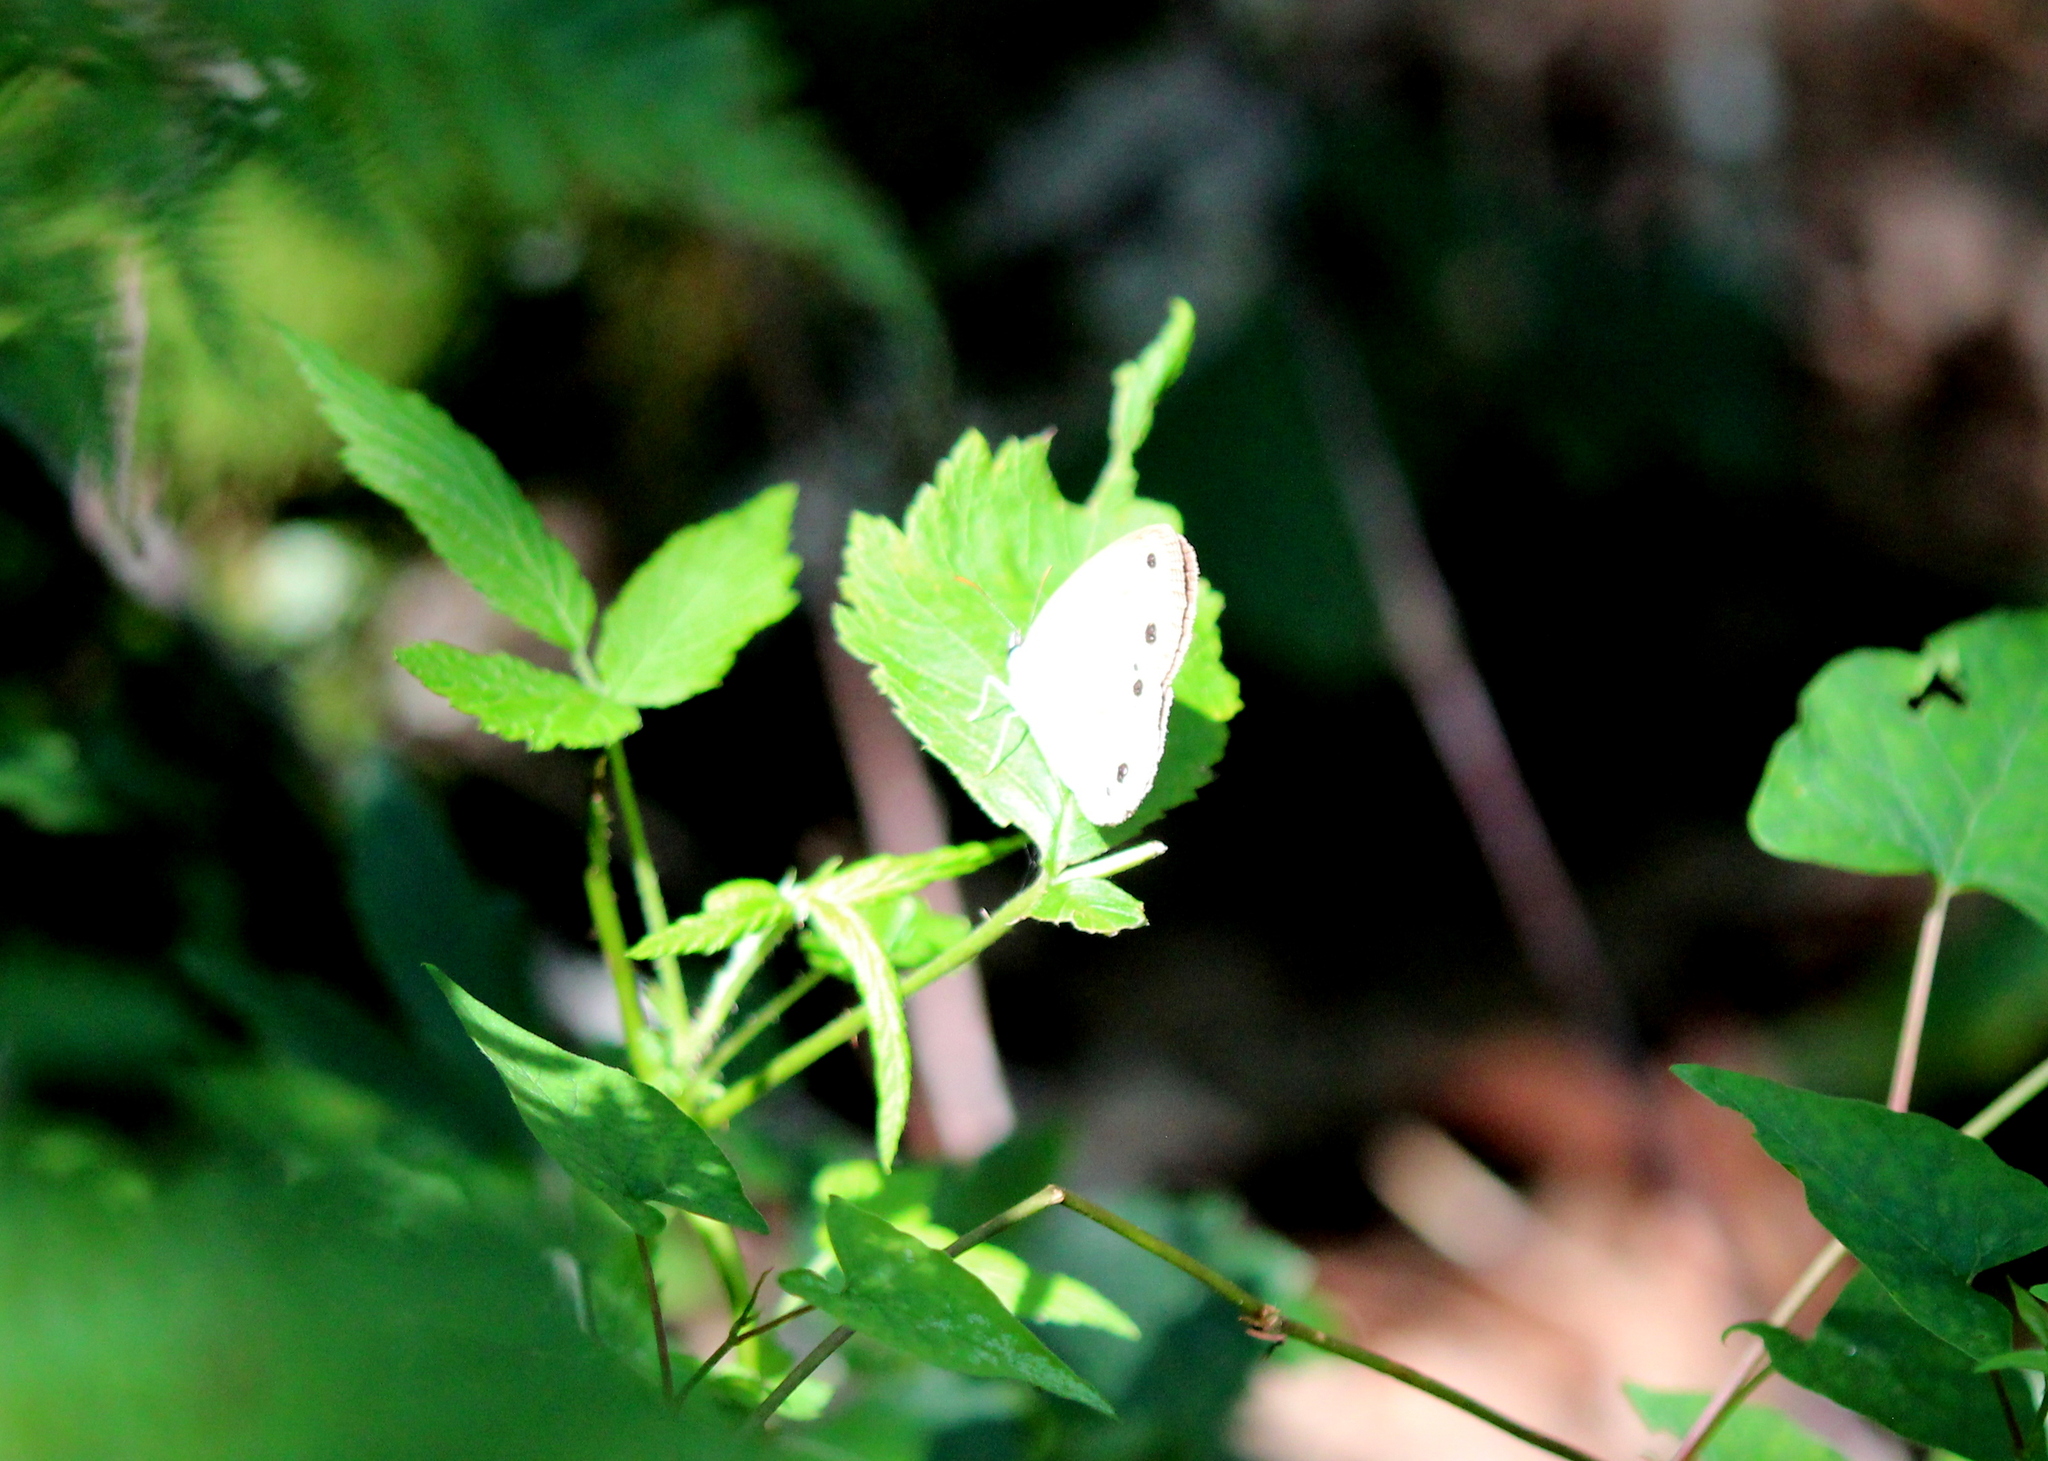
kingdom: Animalia
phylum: Arthropoda
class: Insecta
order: Lepidoptera
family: Nymphalidae
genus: Euptychia
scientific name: Euptychia cymela
